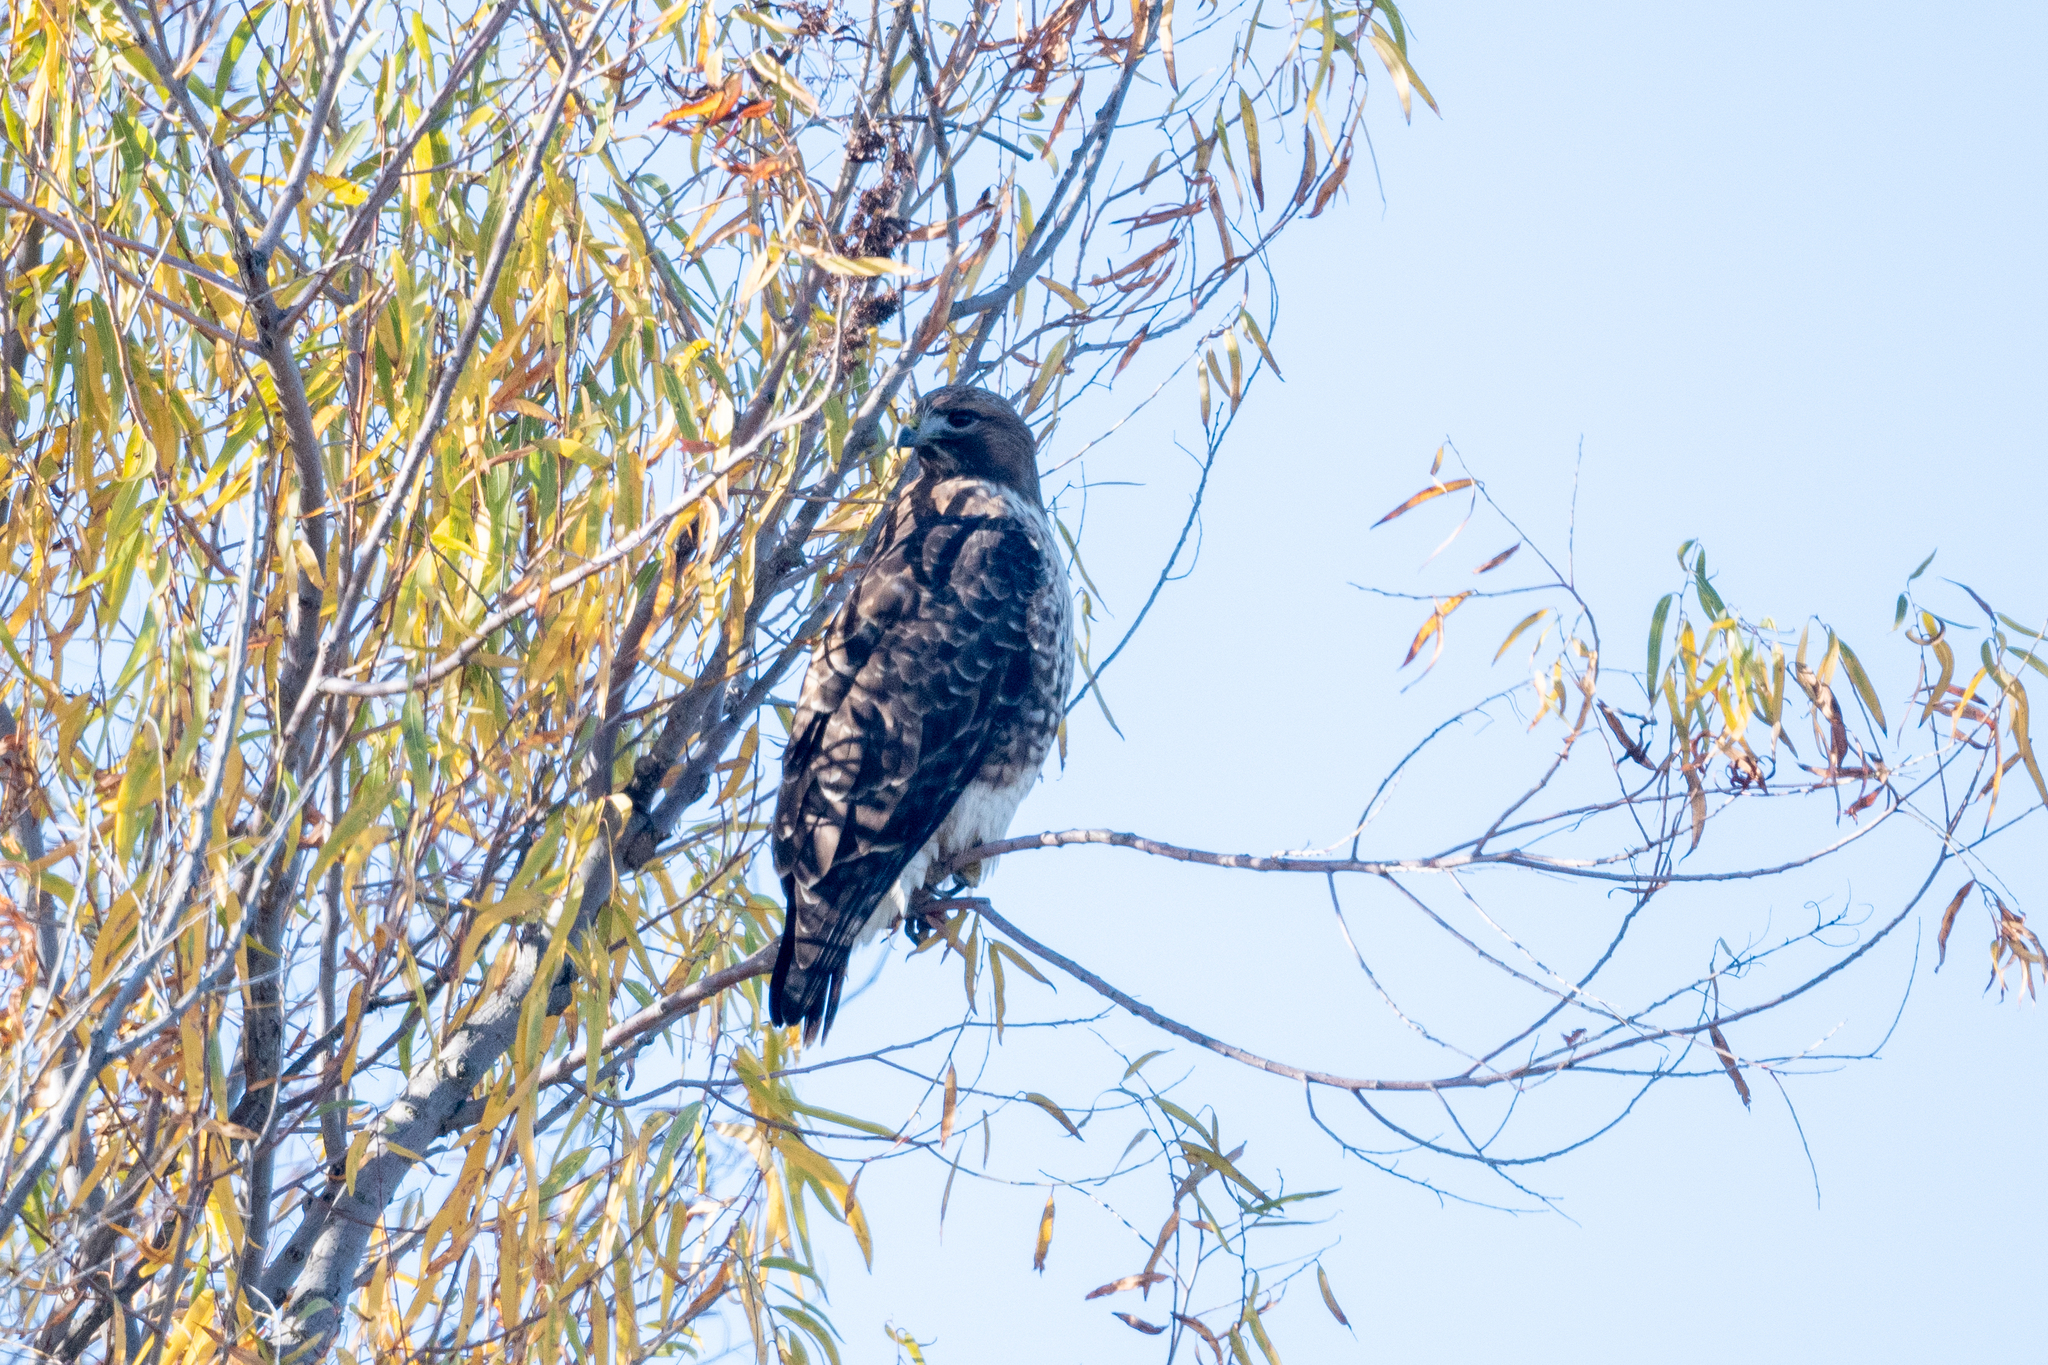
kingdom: Animalia
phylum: Chordata
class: Aves
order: Accipitriformes
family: Accipitridae
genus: Buteo
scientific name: Buteo jamaicensis
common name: Red-tailed hawk
